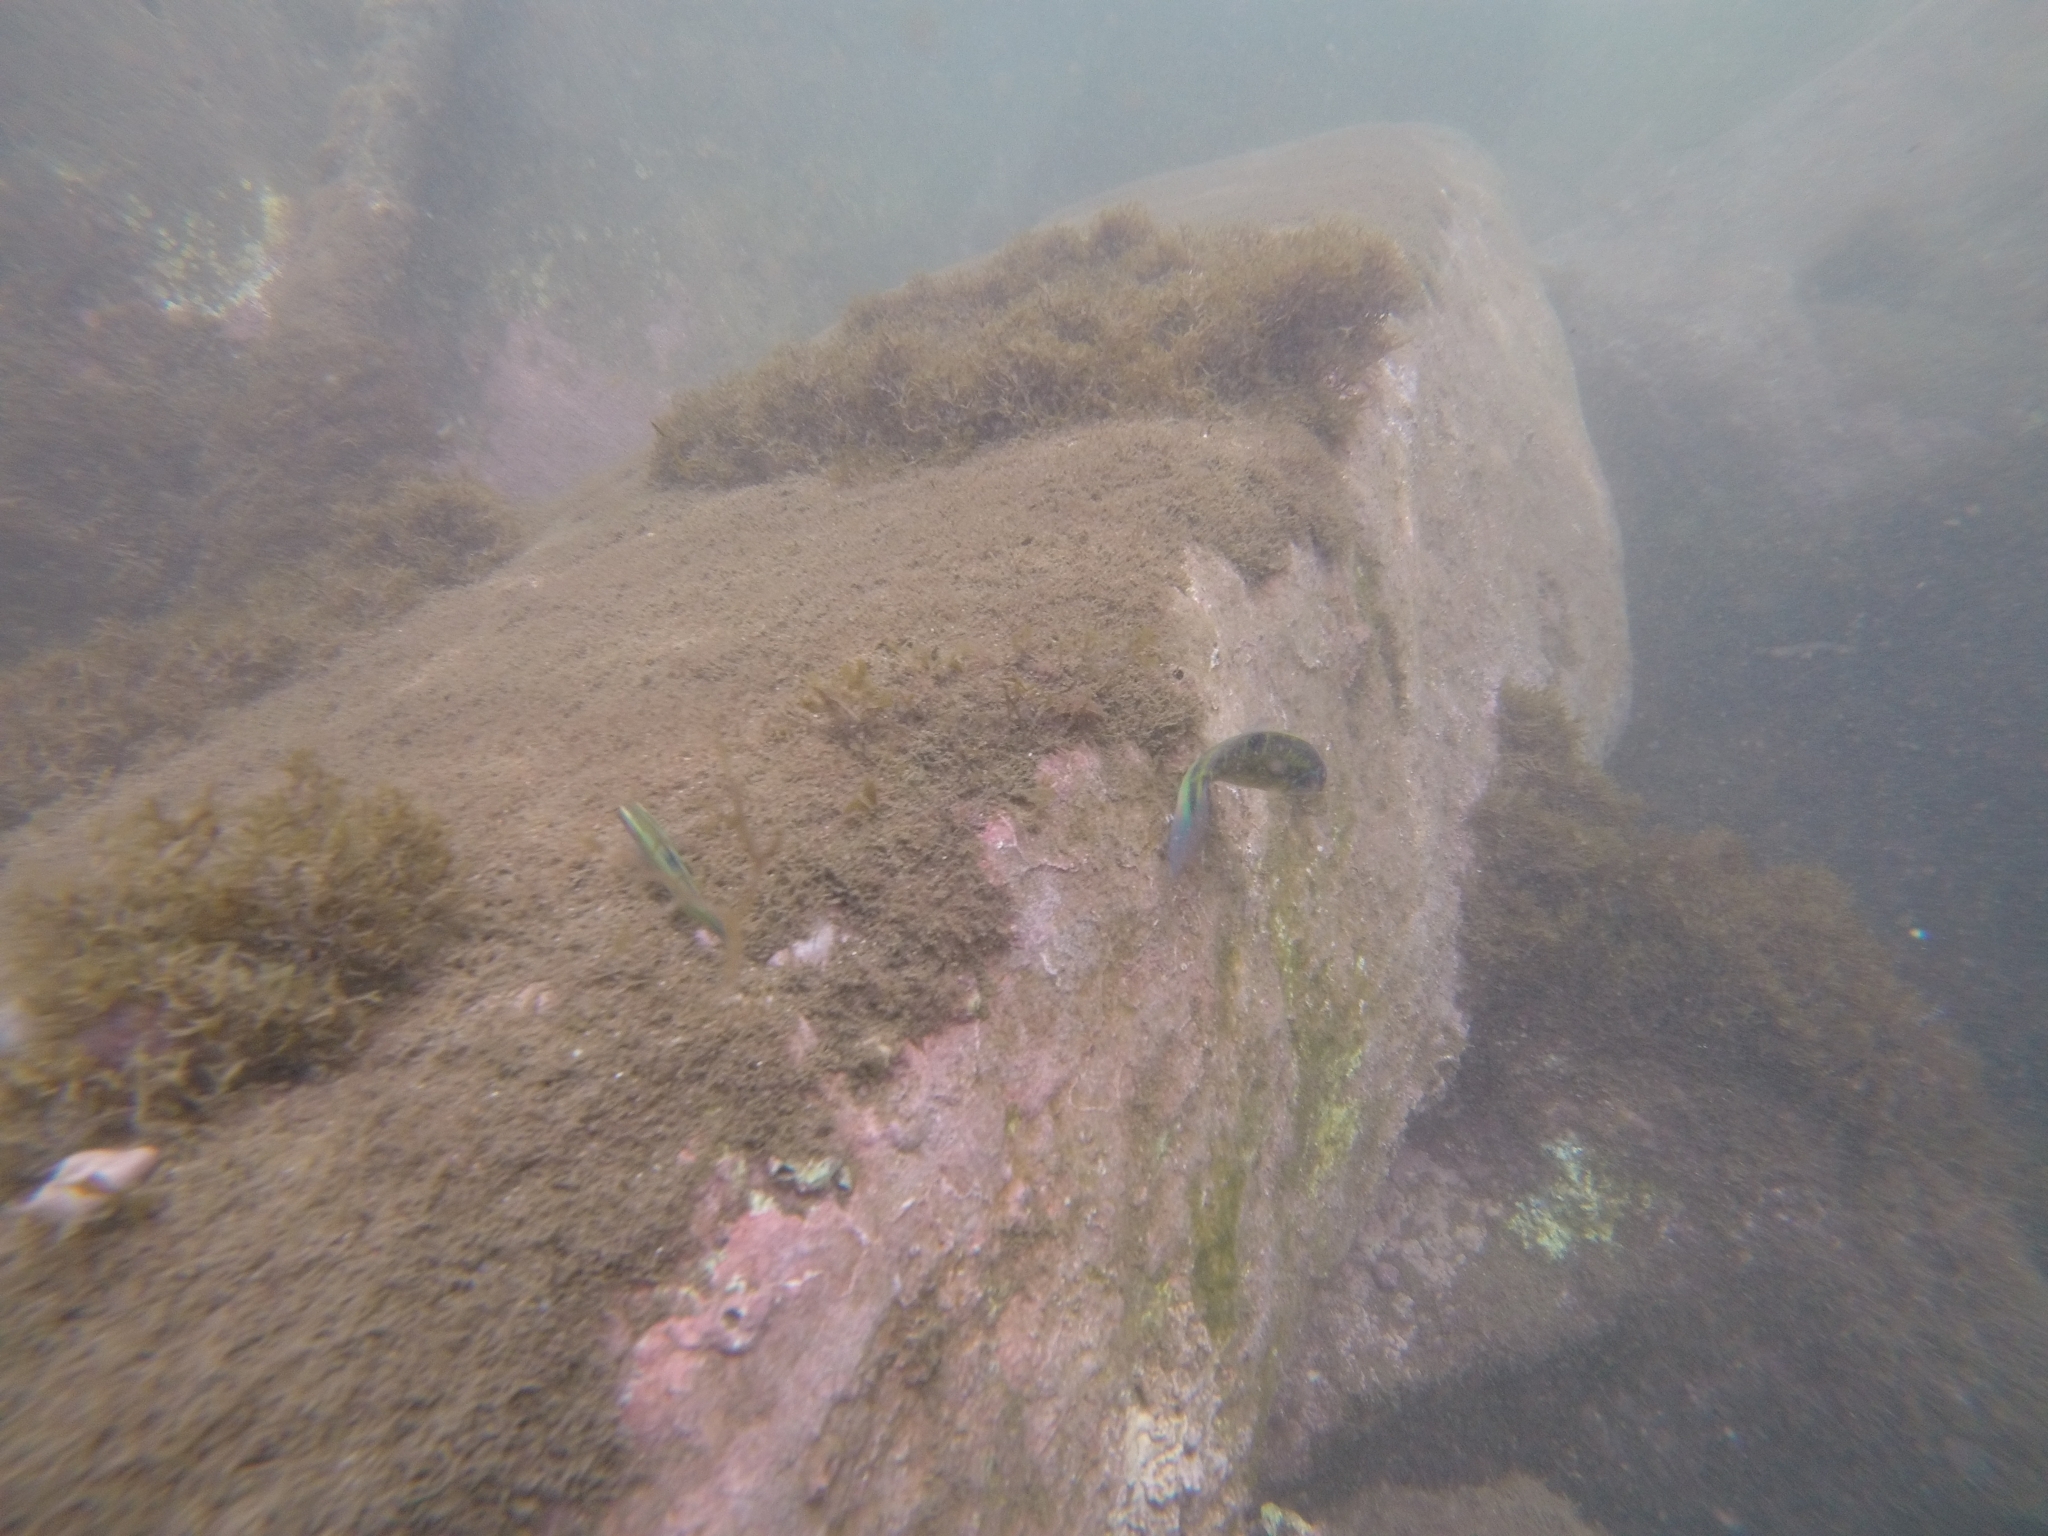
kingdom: Animalia
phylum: Chordata
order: Perciformes
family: Labridae
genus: Thalassoma
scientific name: Thalassoma pavo
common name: Ornate wrasse
